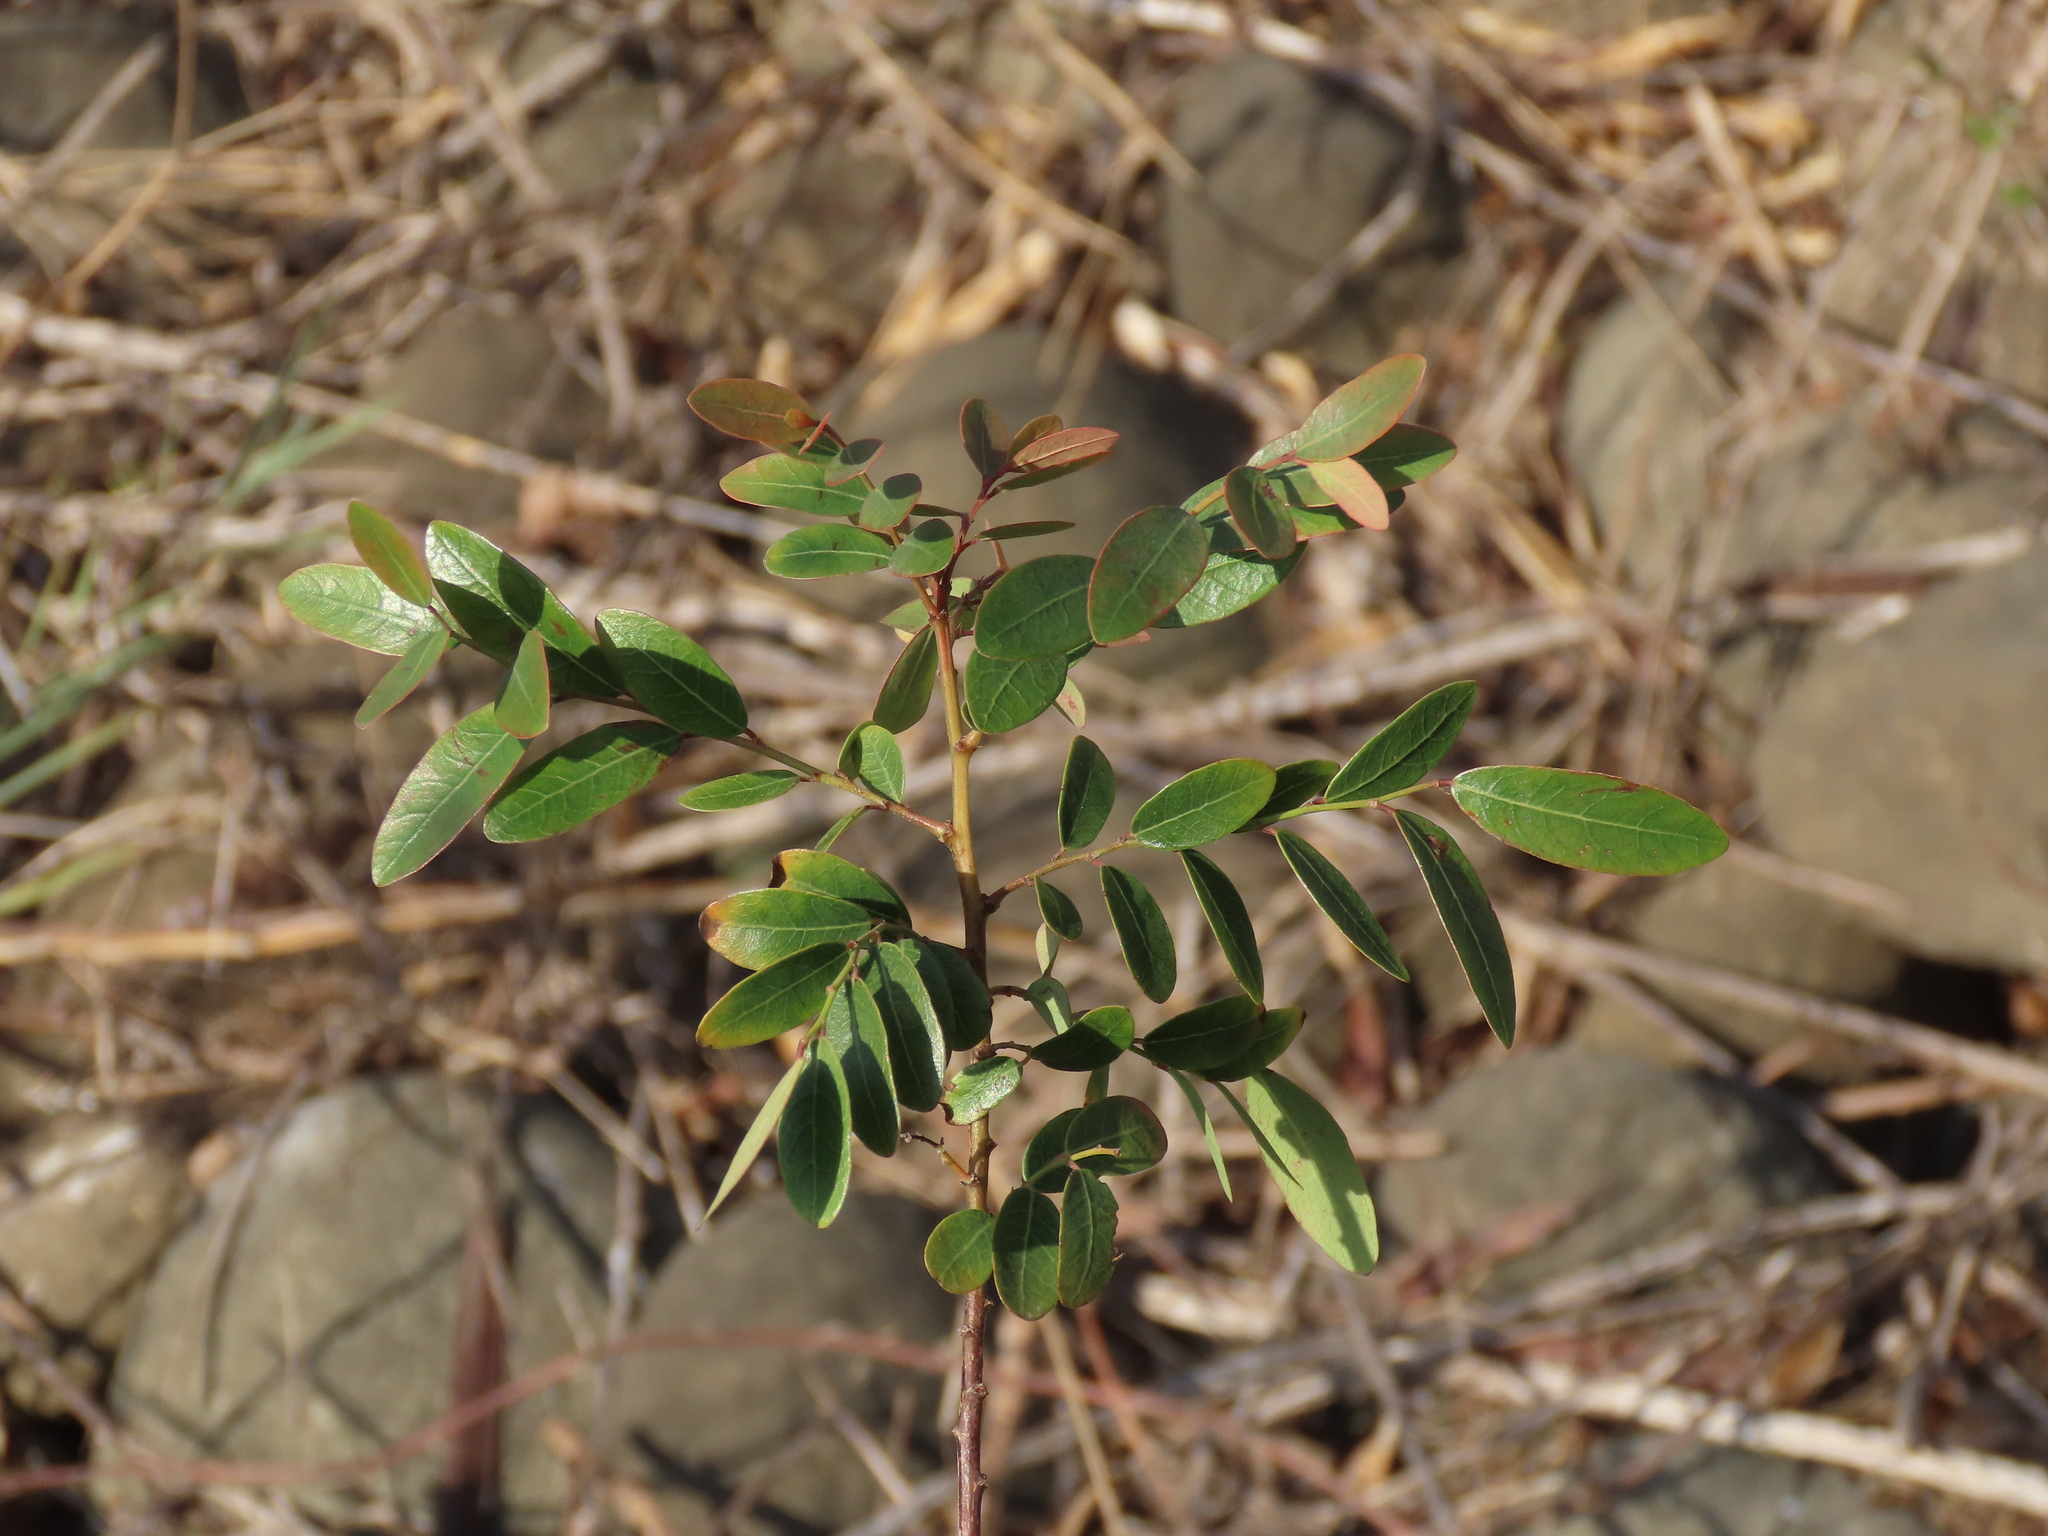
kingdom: Plantae
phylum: Tracheophyta
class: Magnoliopsida
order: Malpighiales
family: Phyllanthaceae
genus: Phyllanthus
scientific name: Phyllanthus reticulatus
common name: Potato bush
